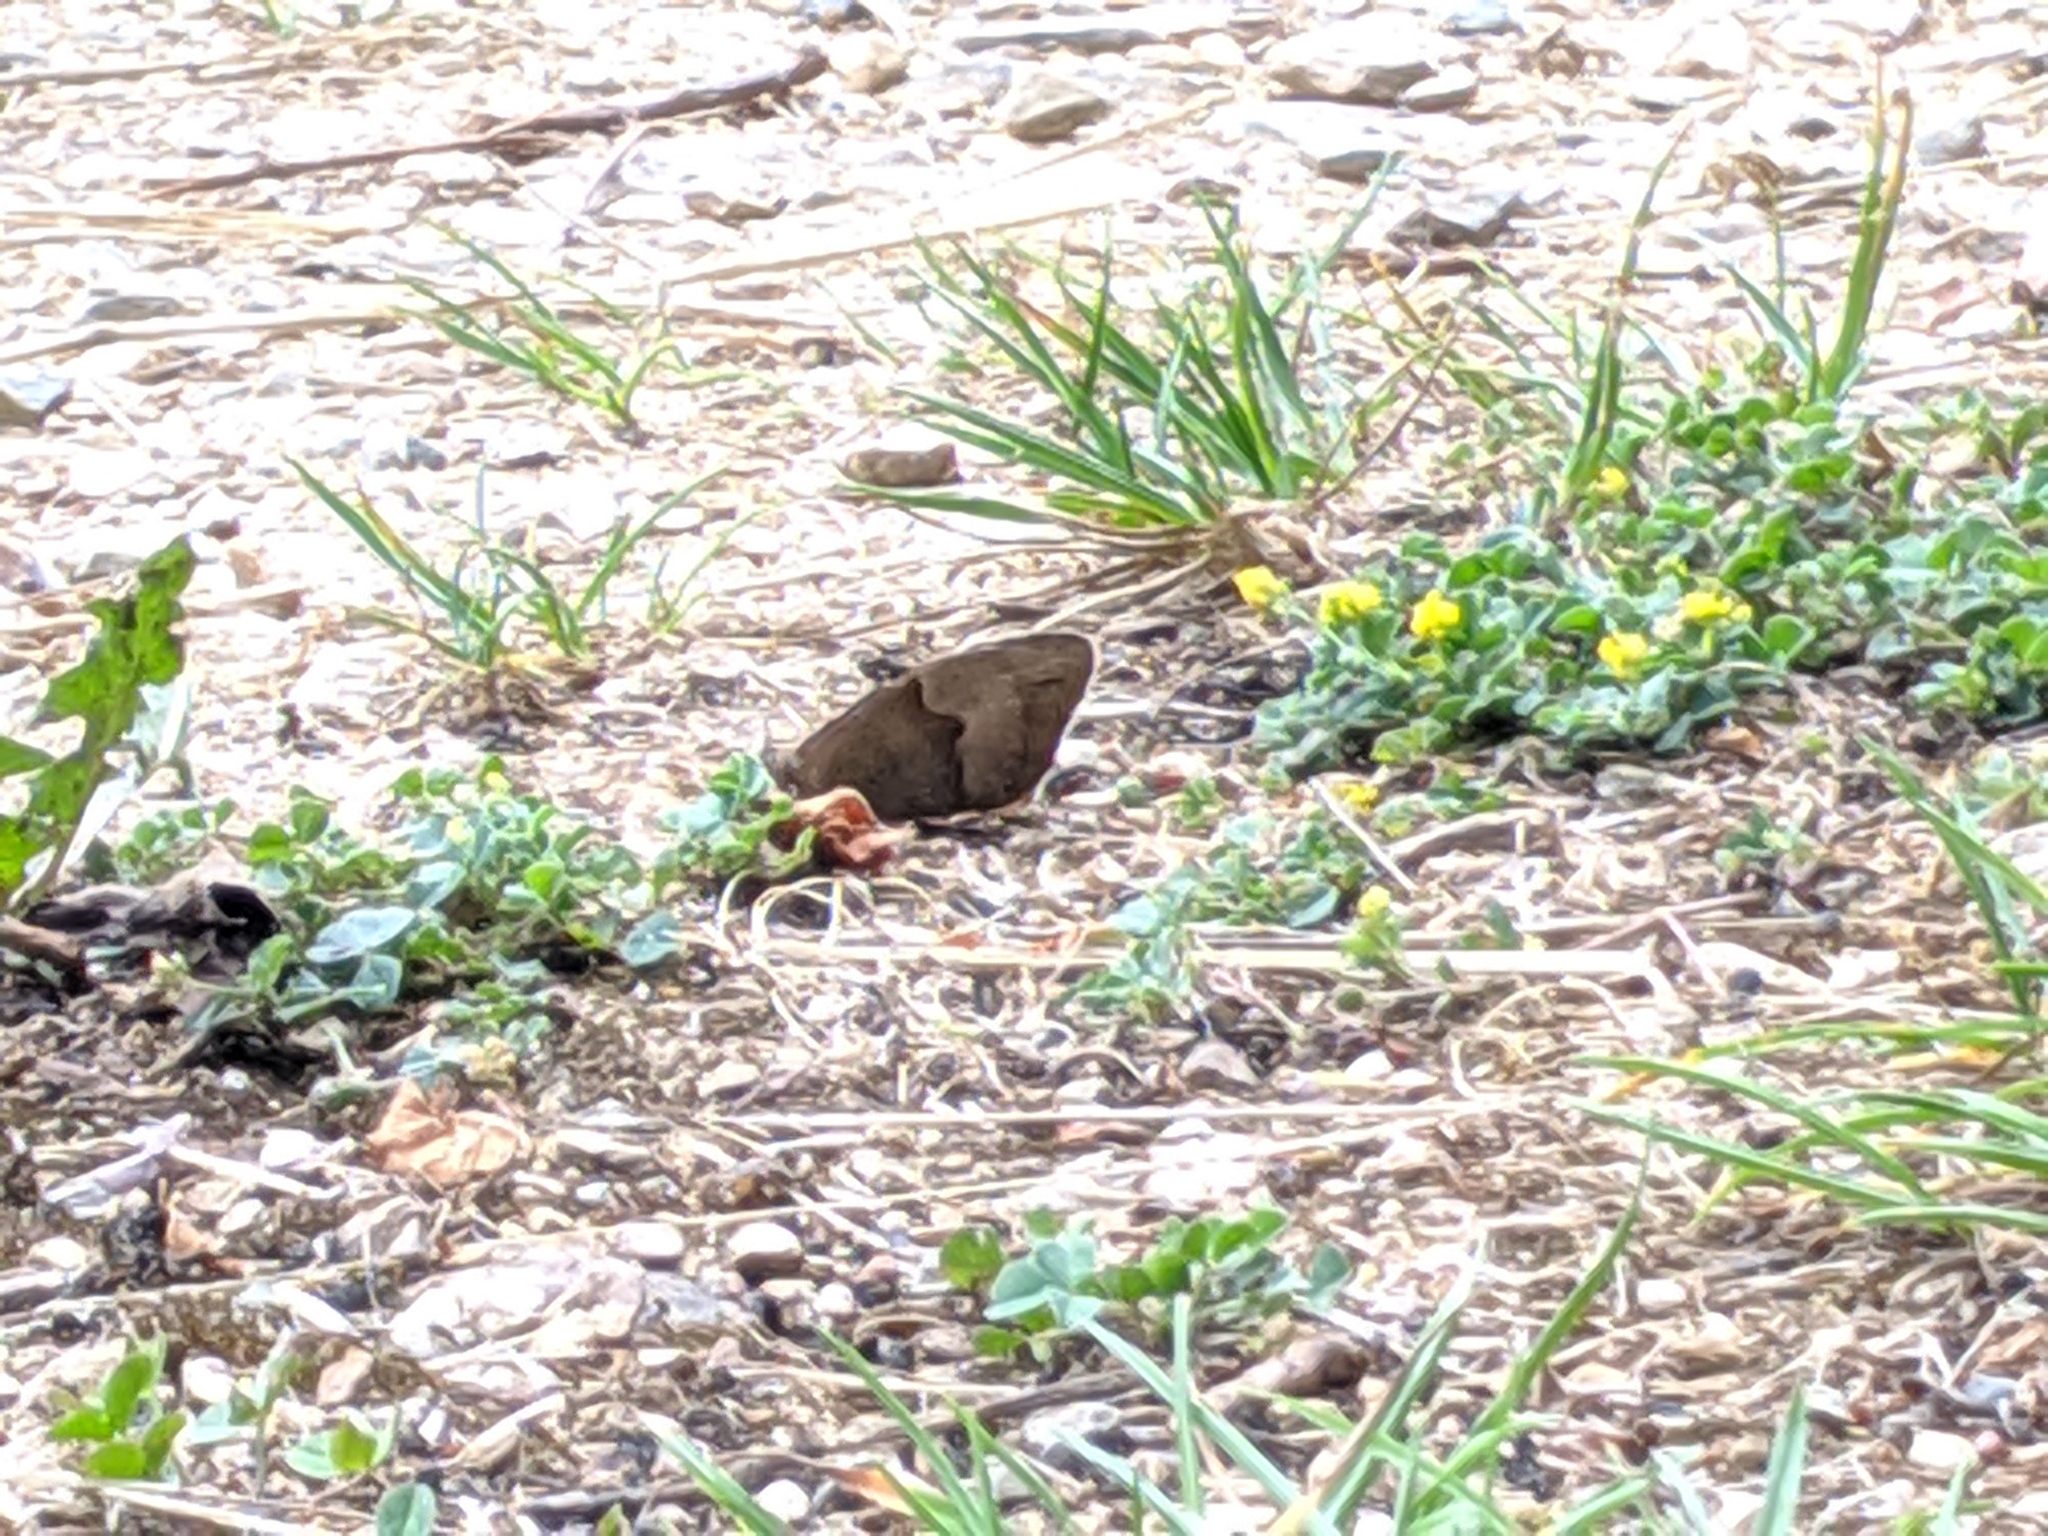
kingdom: Animalia
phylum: Arthropoda
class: Insecta
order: Lepidoptera
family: Nymphalidae
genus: Maniola
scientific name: Maniola jurtina
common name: Meadow brown
